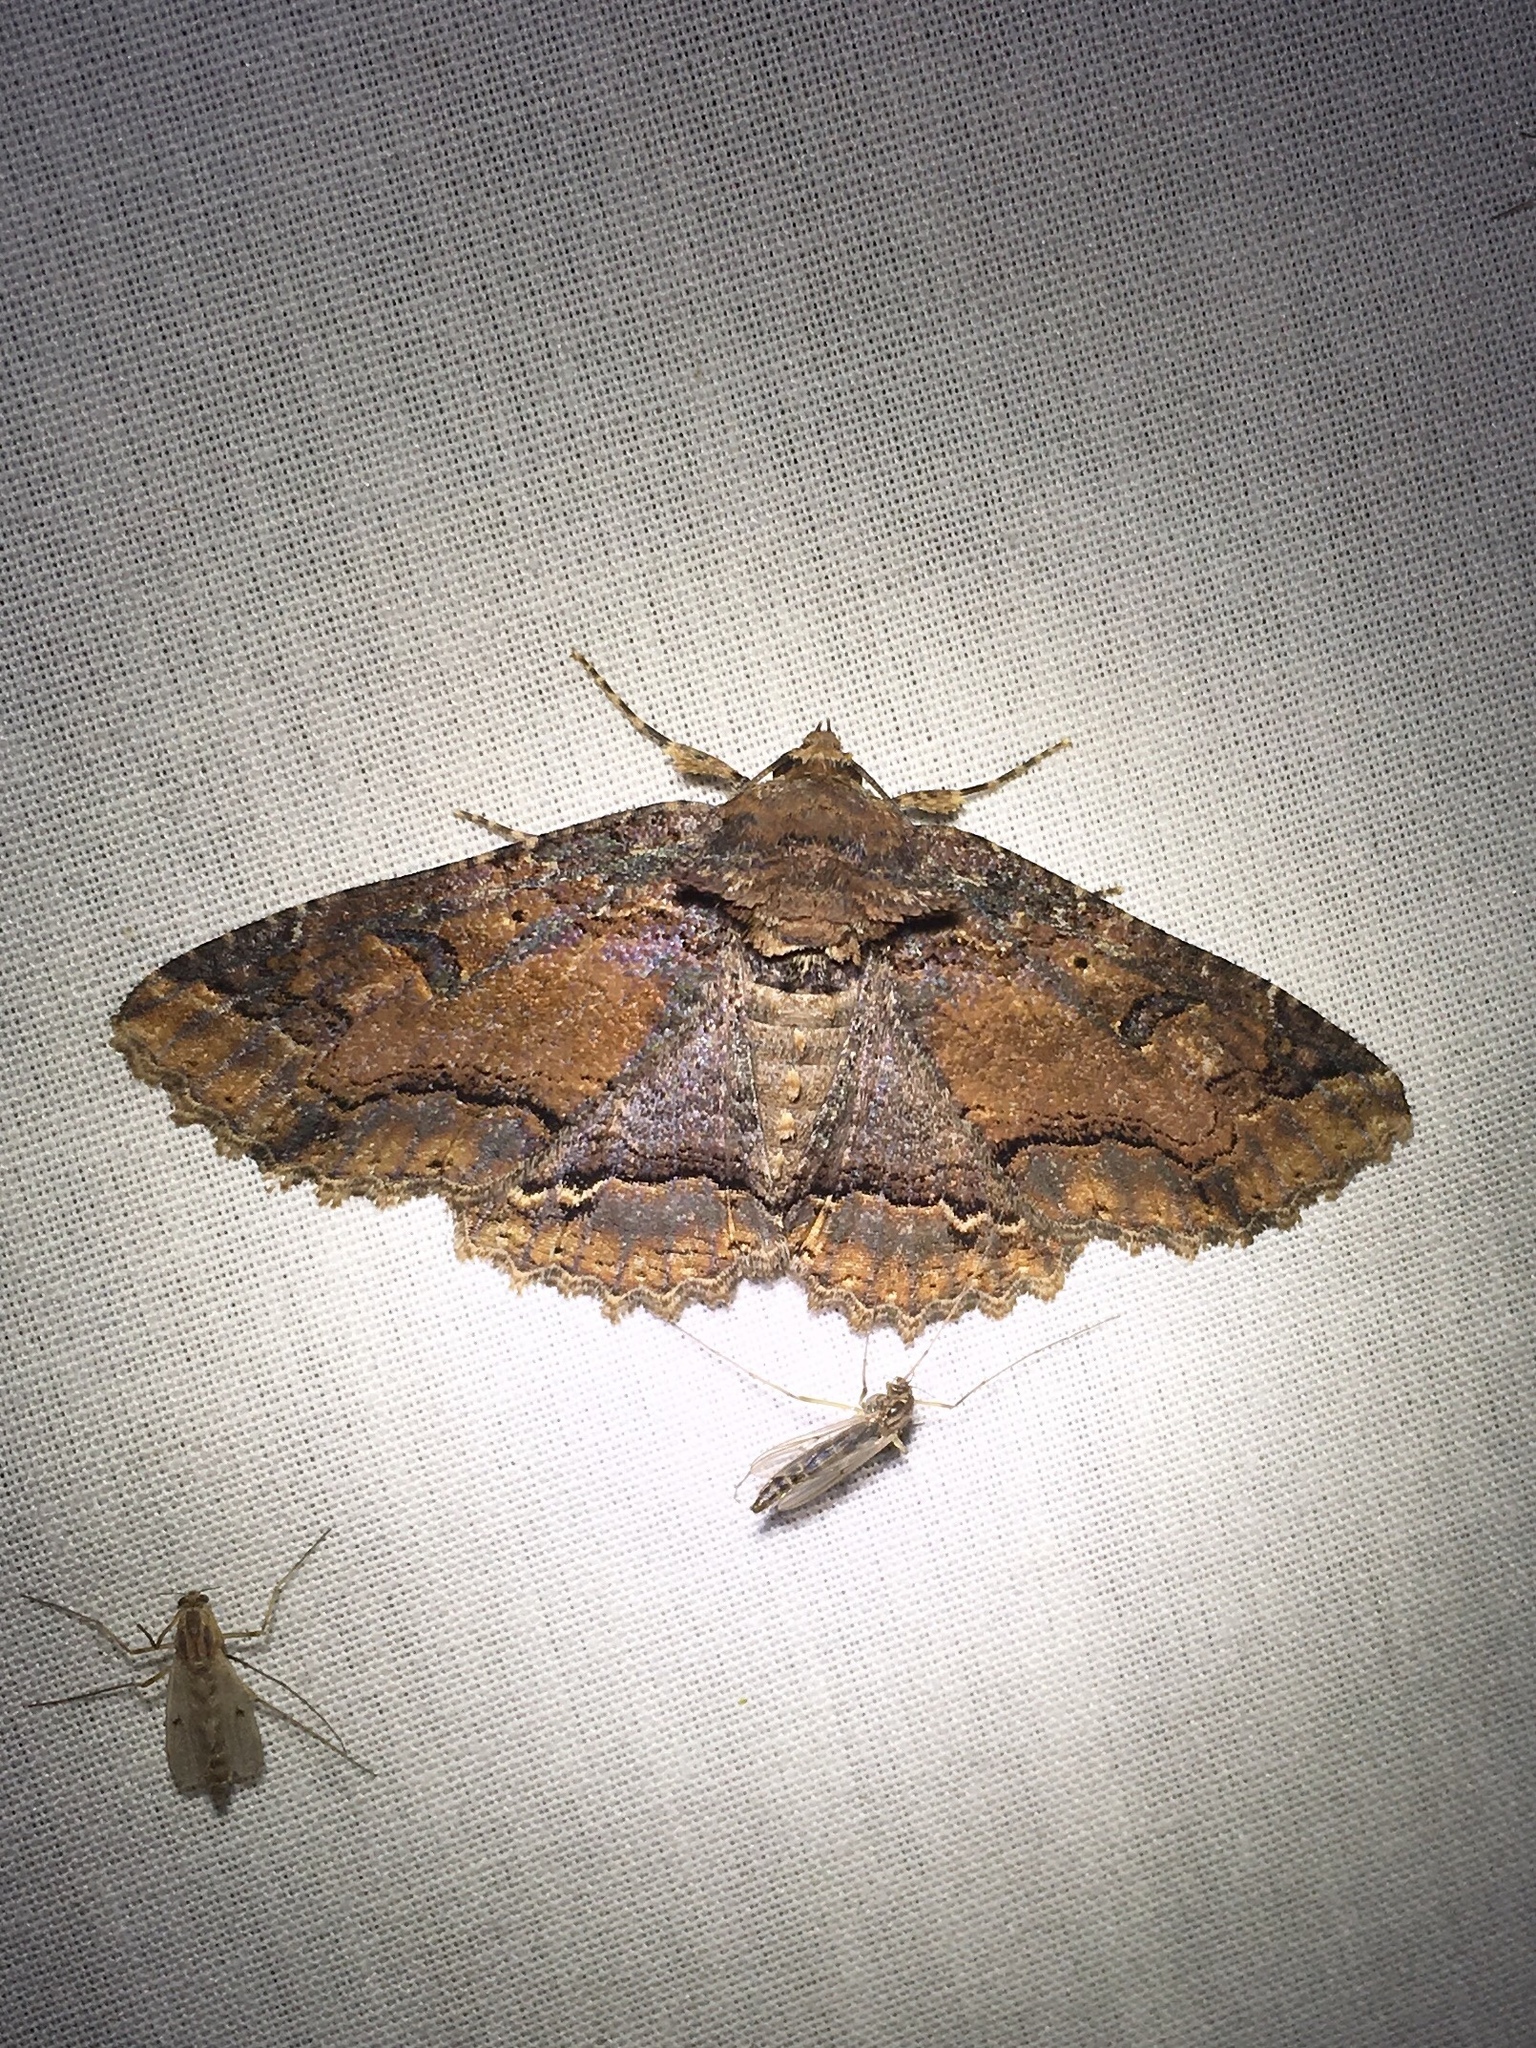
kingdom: Animalia
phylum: Arthropoda
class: Insecta
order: Lepidoptera
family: Erebidae
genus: Zale
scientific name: Zale minerea
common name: Colorful zale moth
